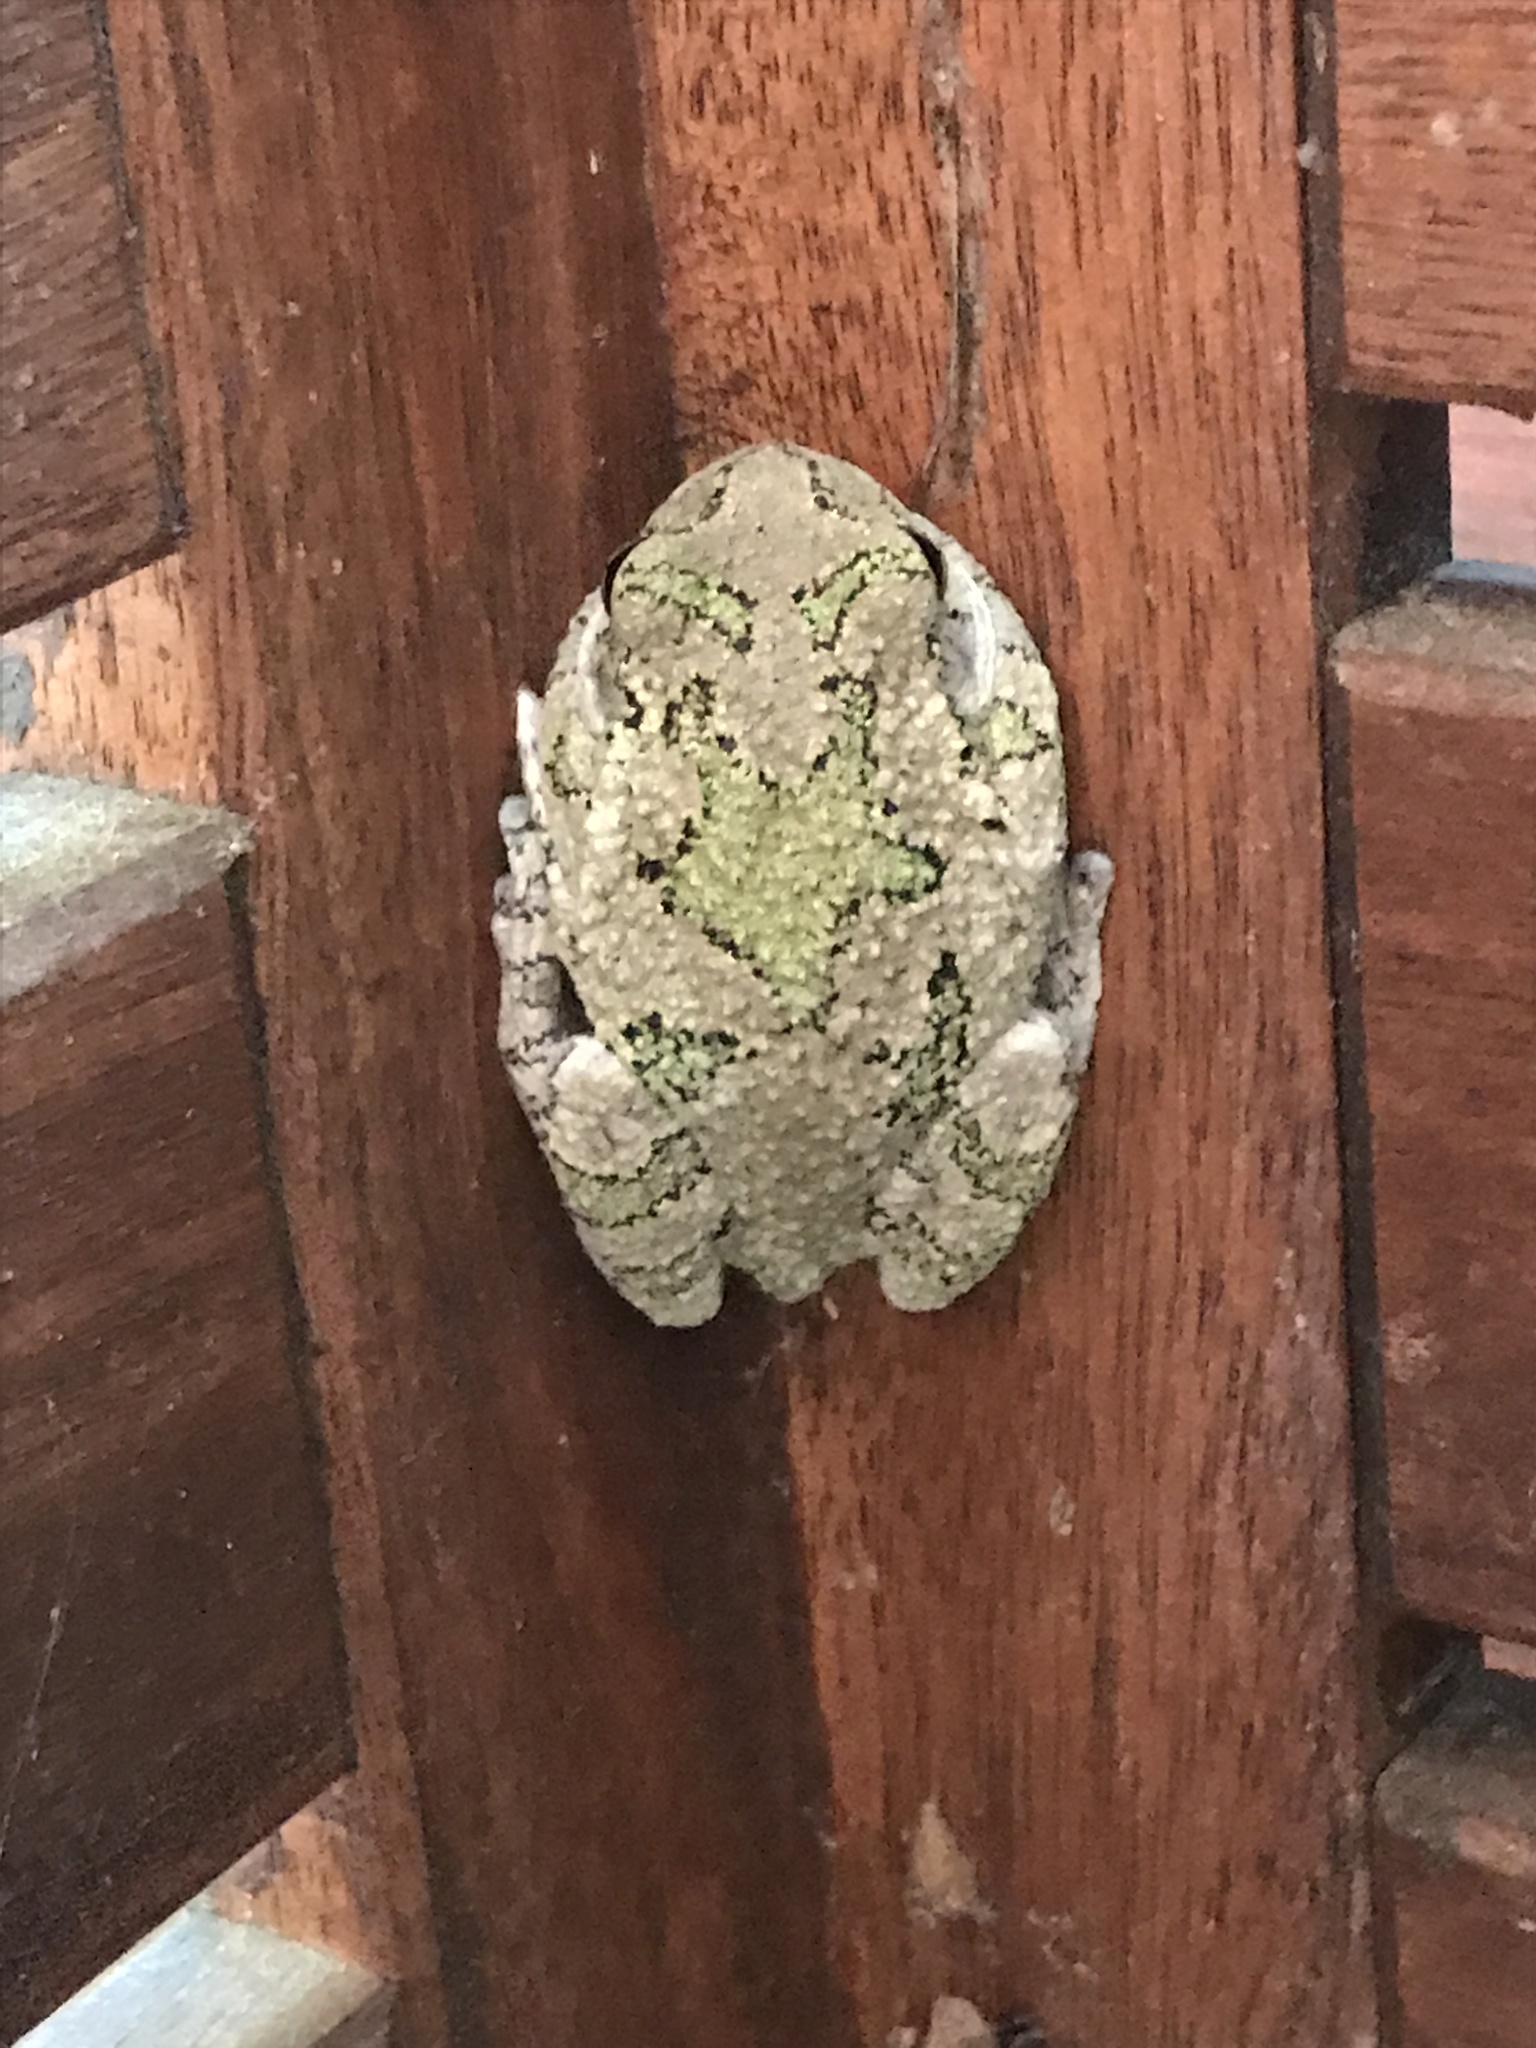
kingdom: Animalia
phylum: Chordata
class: Amphibia
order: Anura
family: Hylidae
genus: Dryophytes
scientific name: Dryophytes versicolor
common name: Gray treefrog
